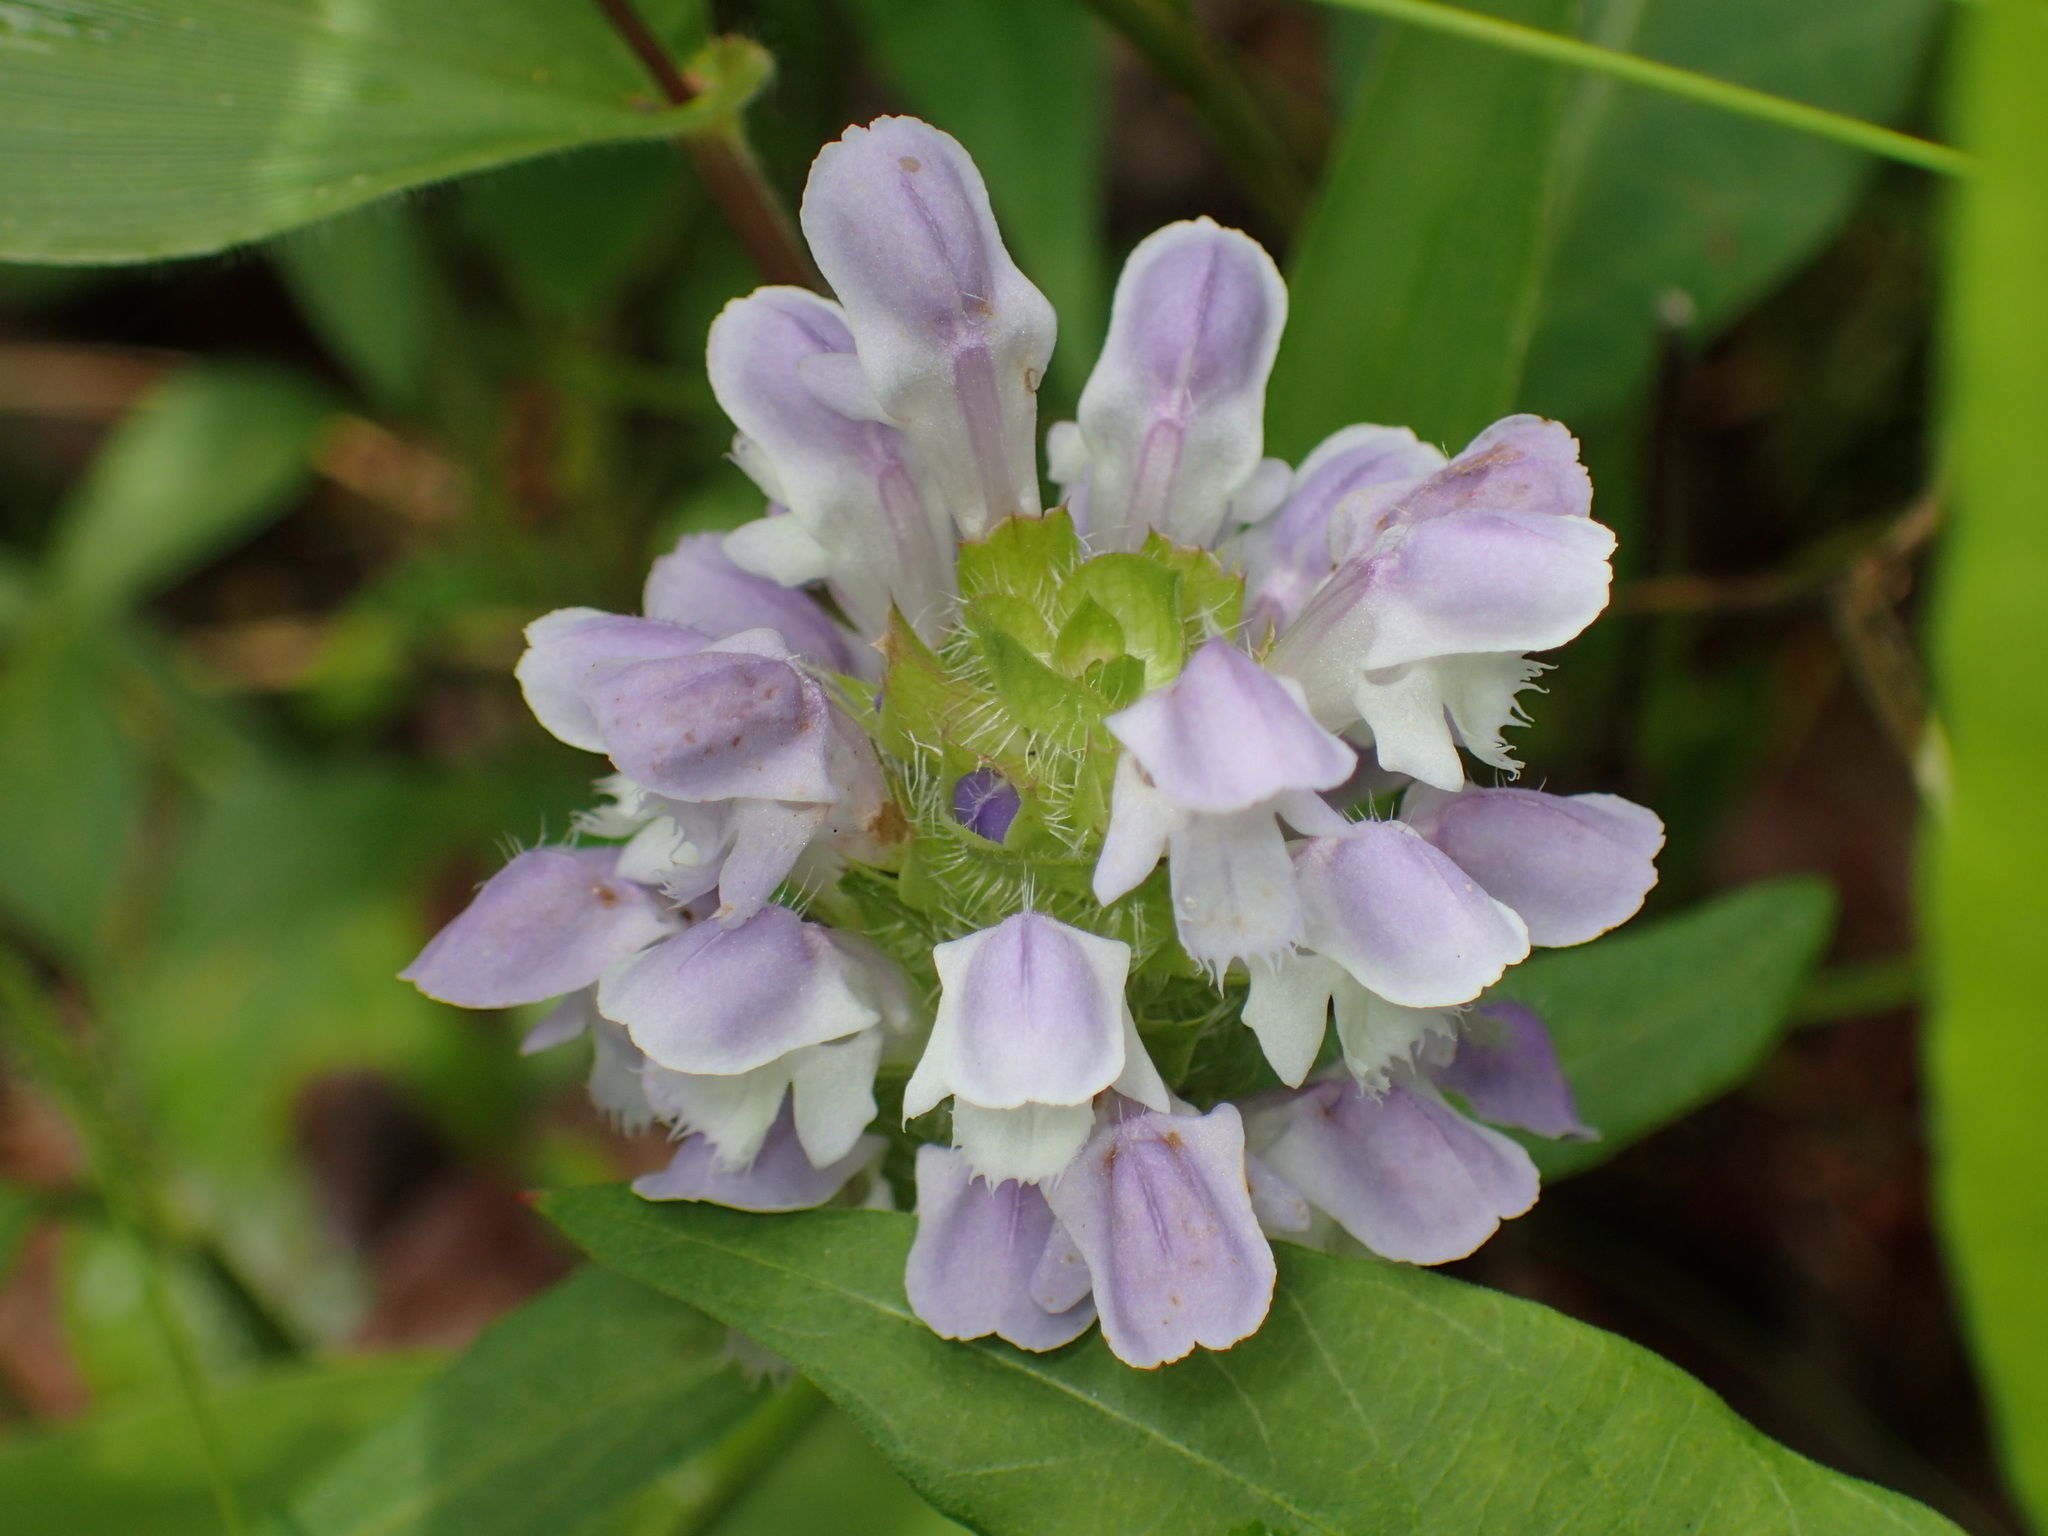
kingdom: Plantae
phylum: Tracheophyta
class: Magnoliopsida
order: Lamiales
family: Lamiaceae
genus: Prunella
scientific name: Prunella vulgaris
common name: Heal-all
